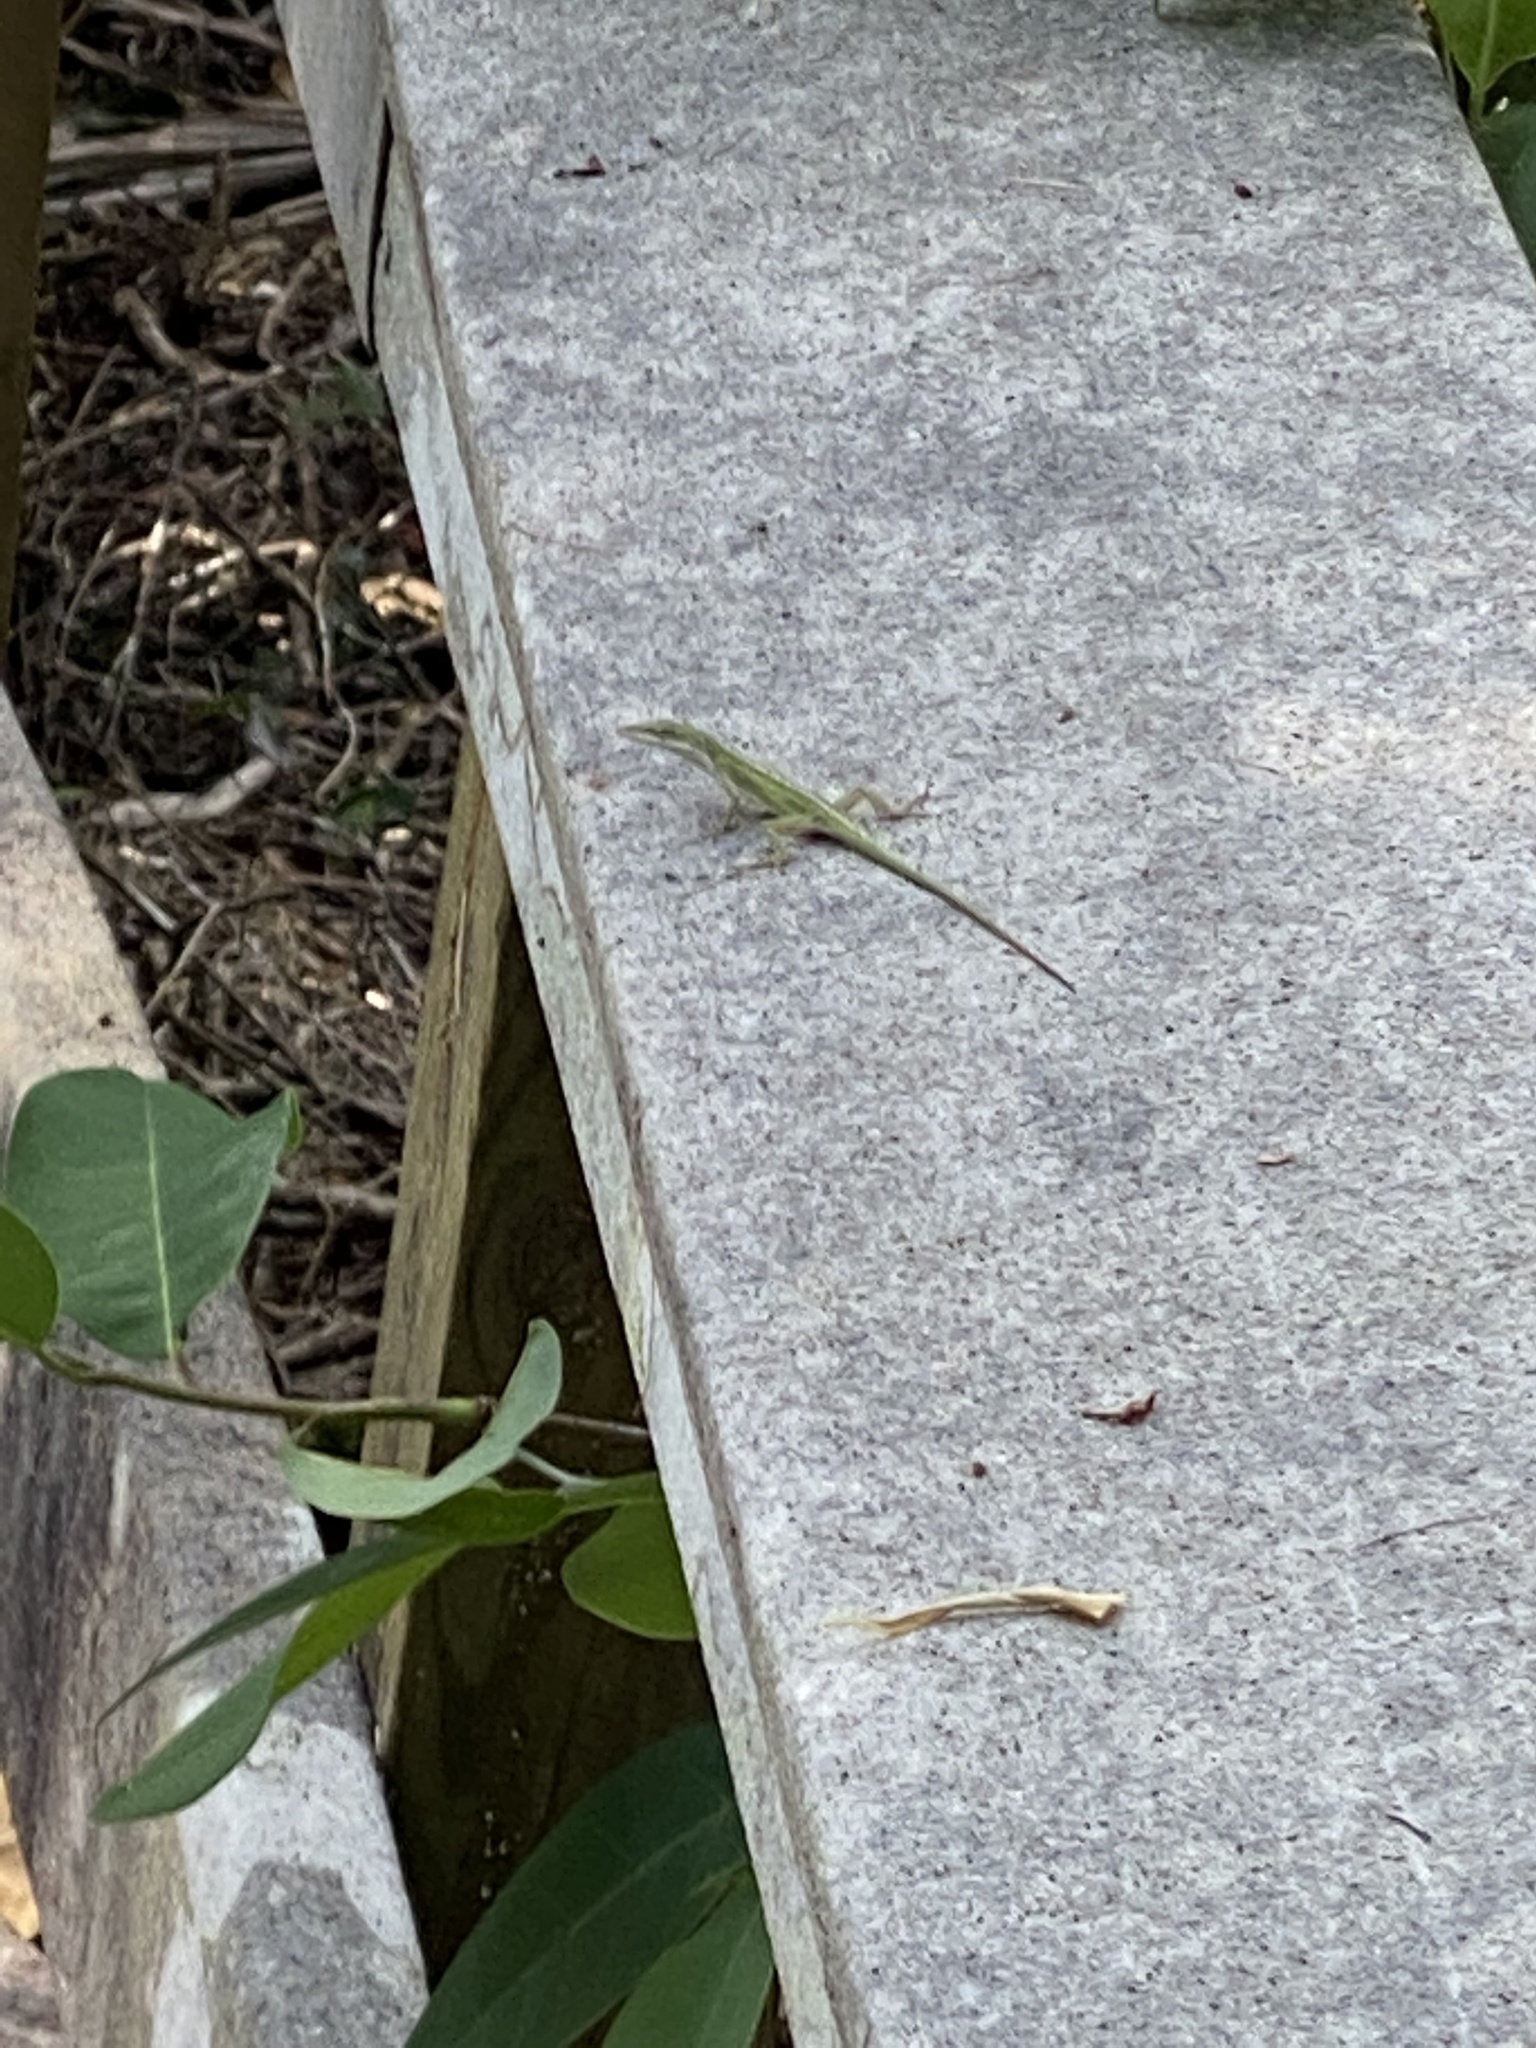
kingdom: Animalia
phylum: Chordata
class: Squamata
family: Dactyloidae
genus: Anolis
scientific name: Anolis carolinensis
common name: Green anole
